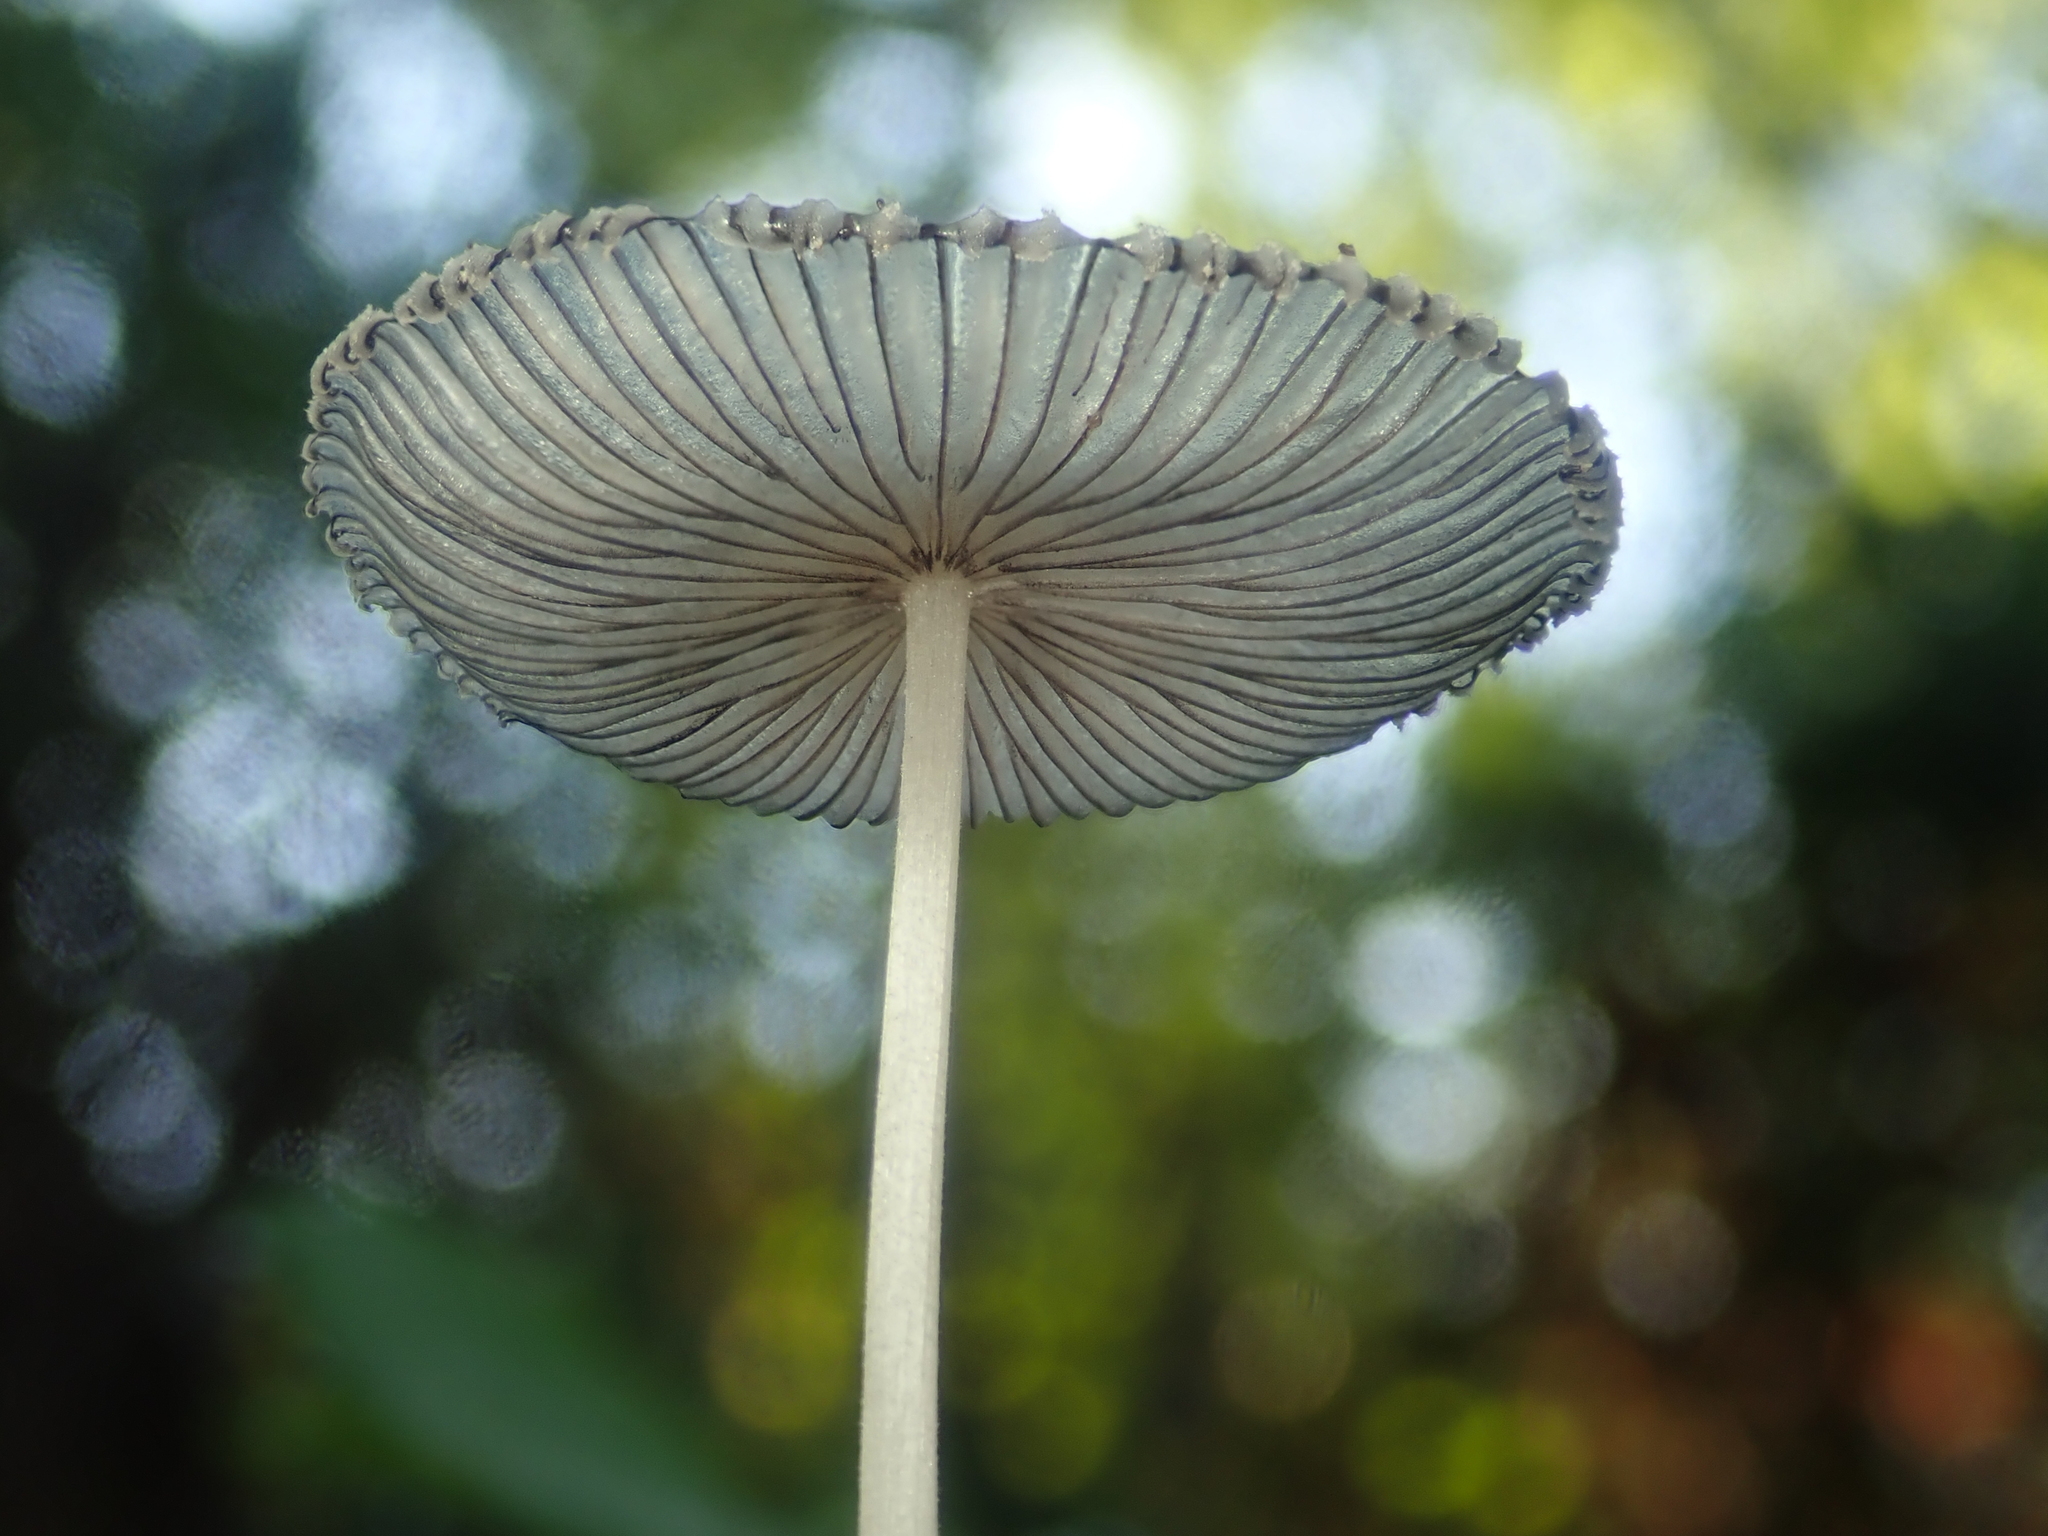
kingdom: Fungi
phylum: Basidiomycota
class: Agaricomycetes
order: Agaricales
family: Psathyrellaceae
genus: Coprinopsis
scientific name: Coprinopsis lagopus
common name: Hare'sfoot inkcap
